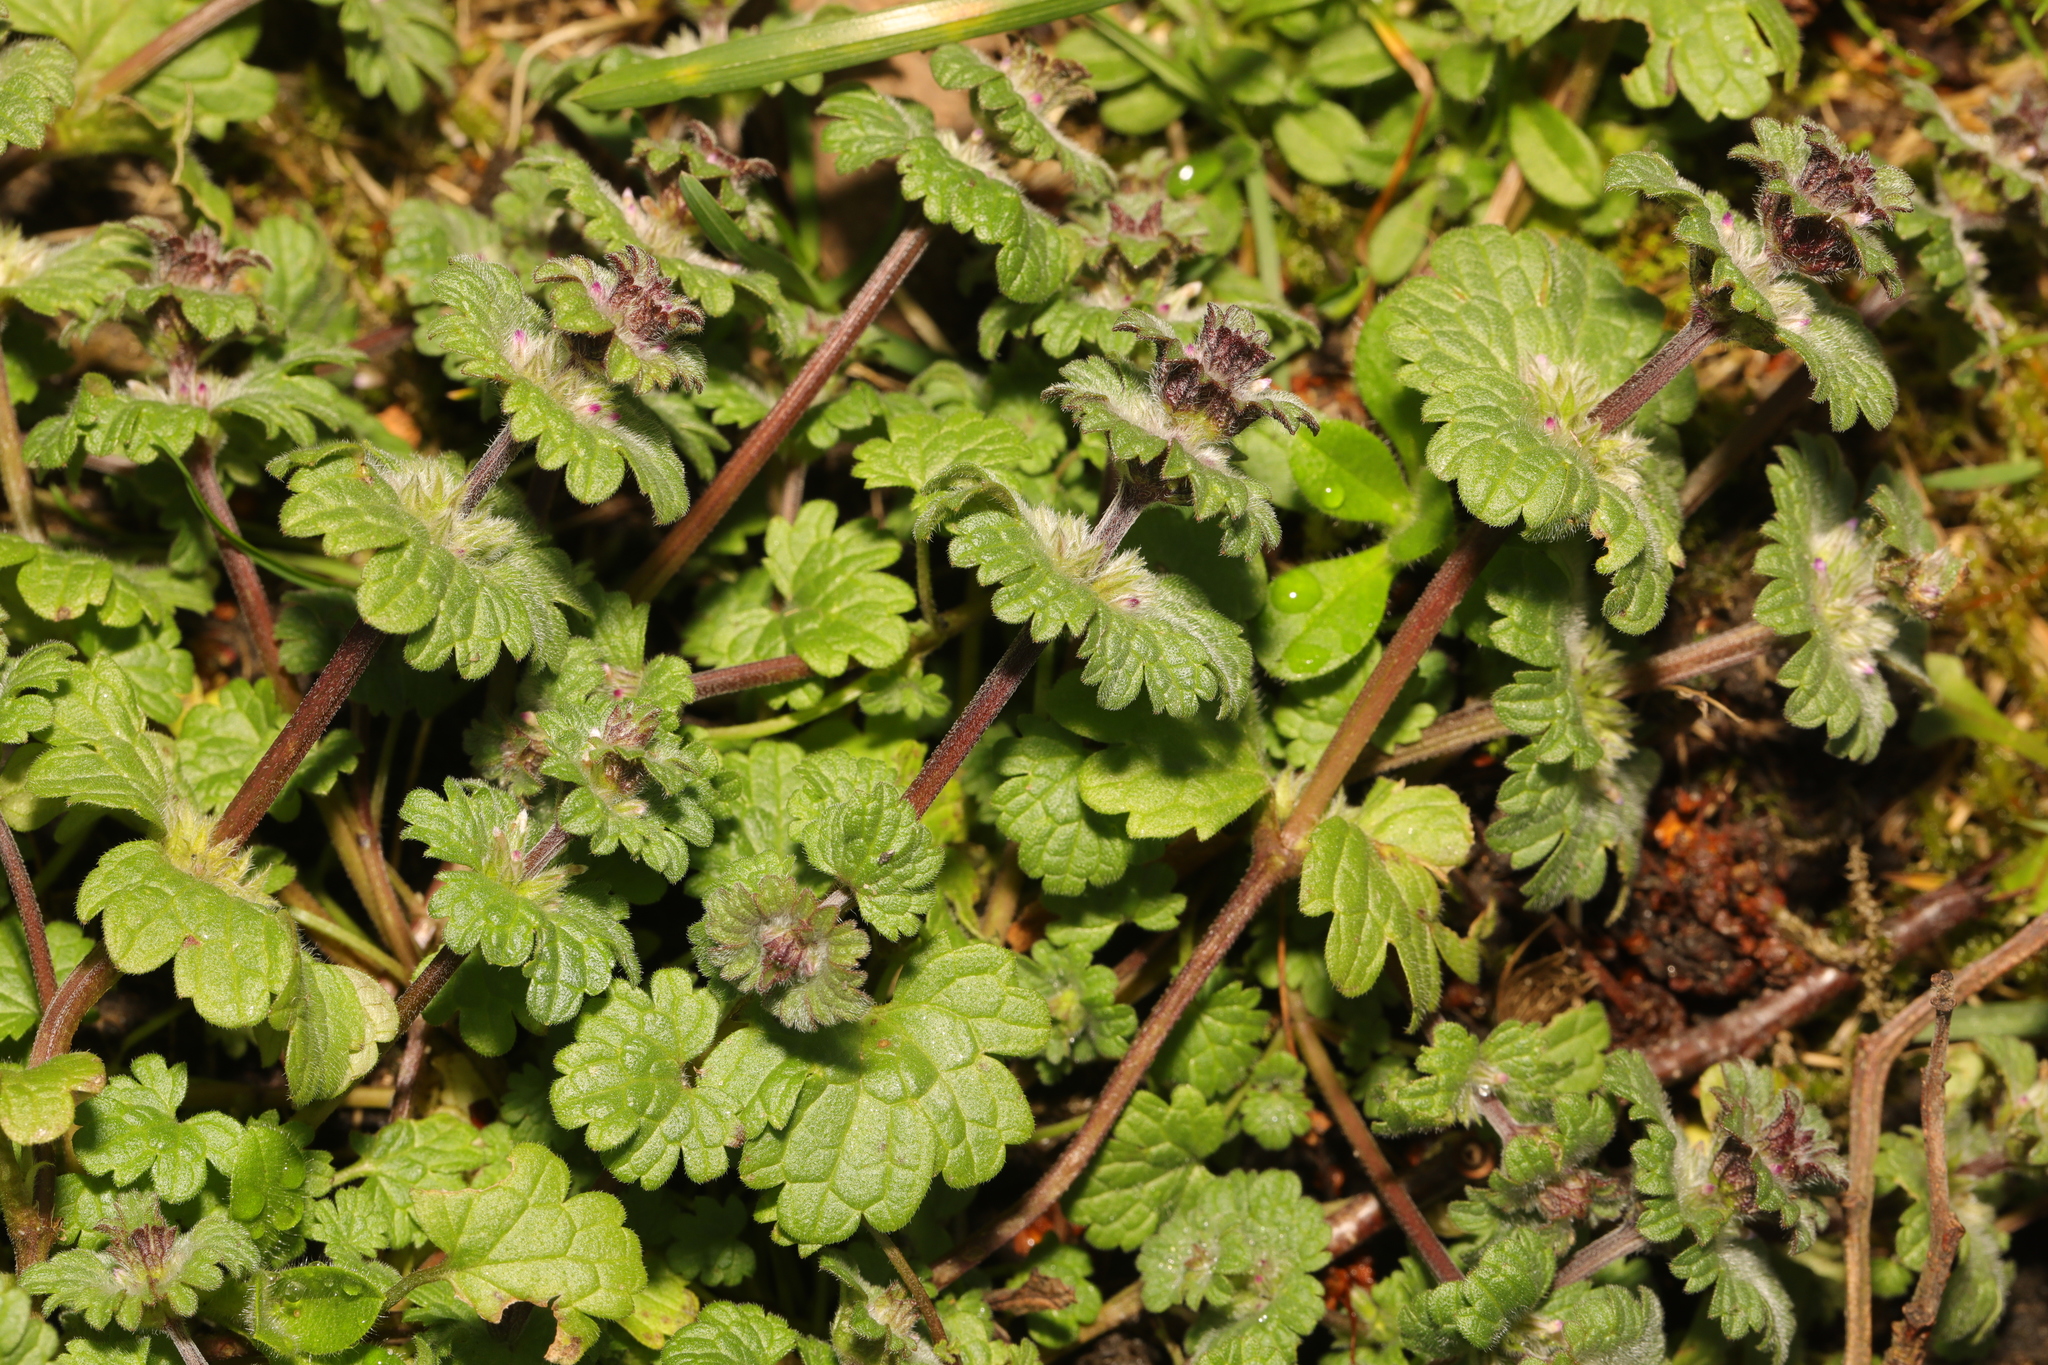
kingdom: Plantae
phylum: Tracheophyta
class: Magnoliopsida
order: Lamiales
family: Lamiaceae
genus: Lamium
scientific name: Lamium amplexicaule
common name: Henbit dead-nettle
